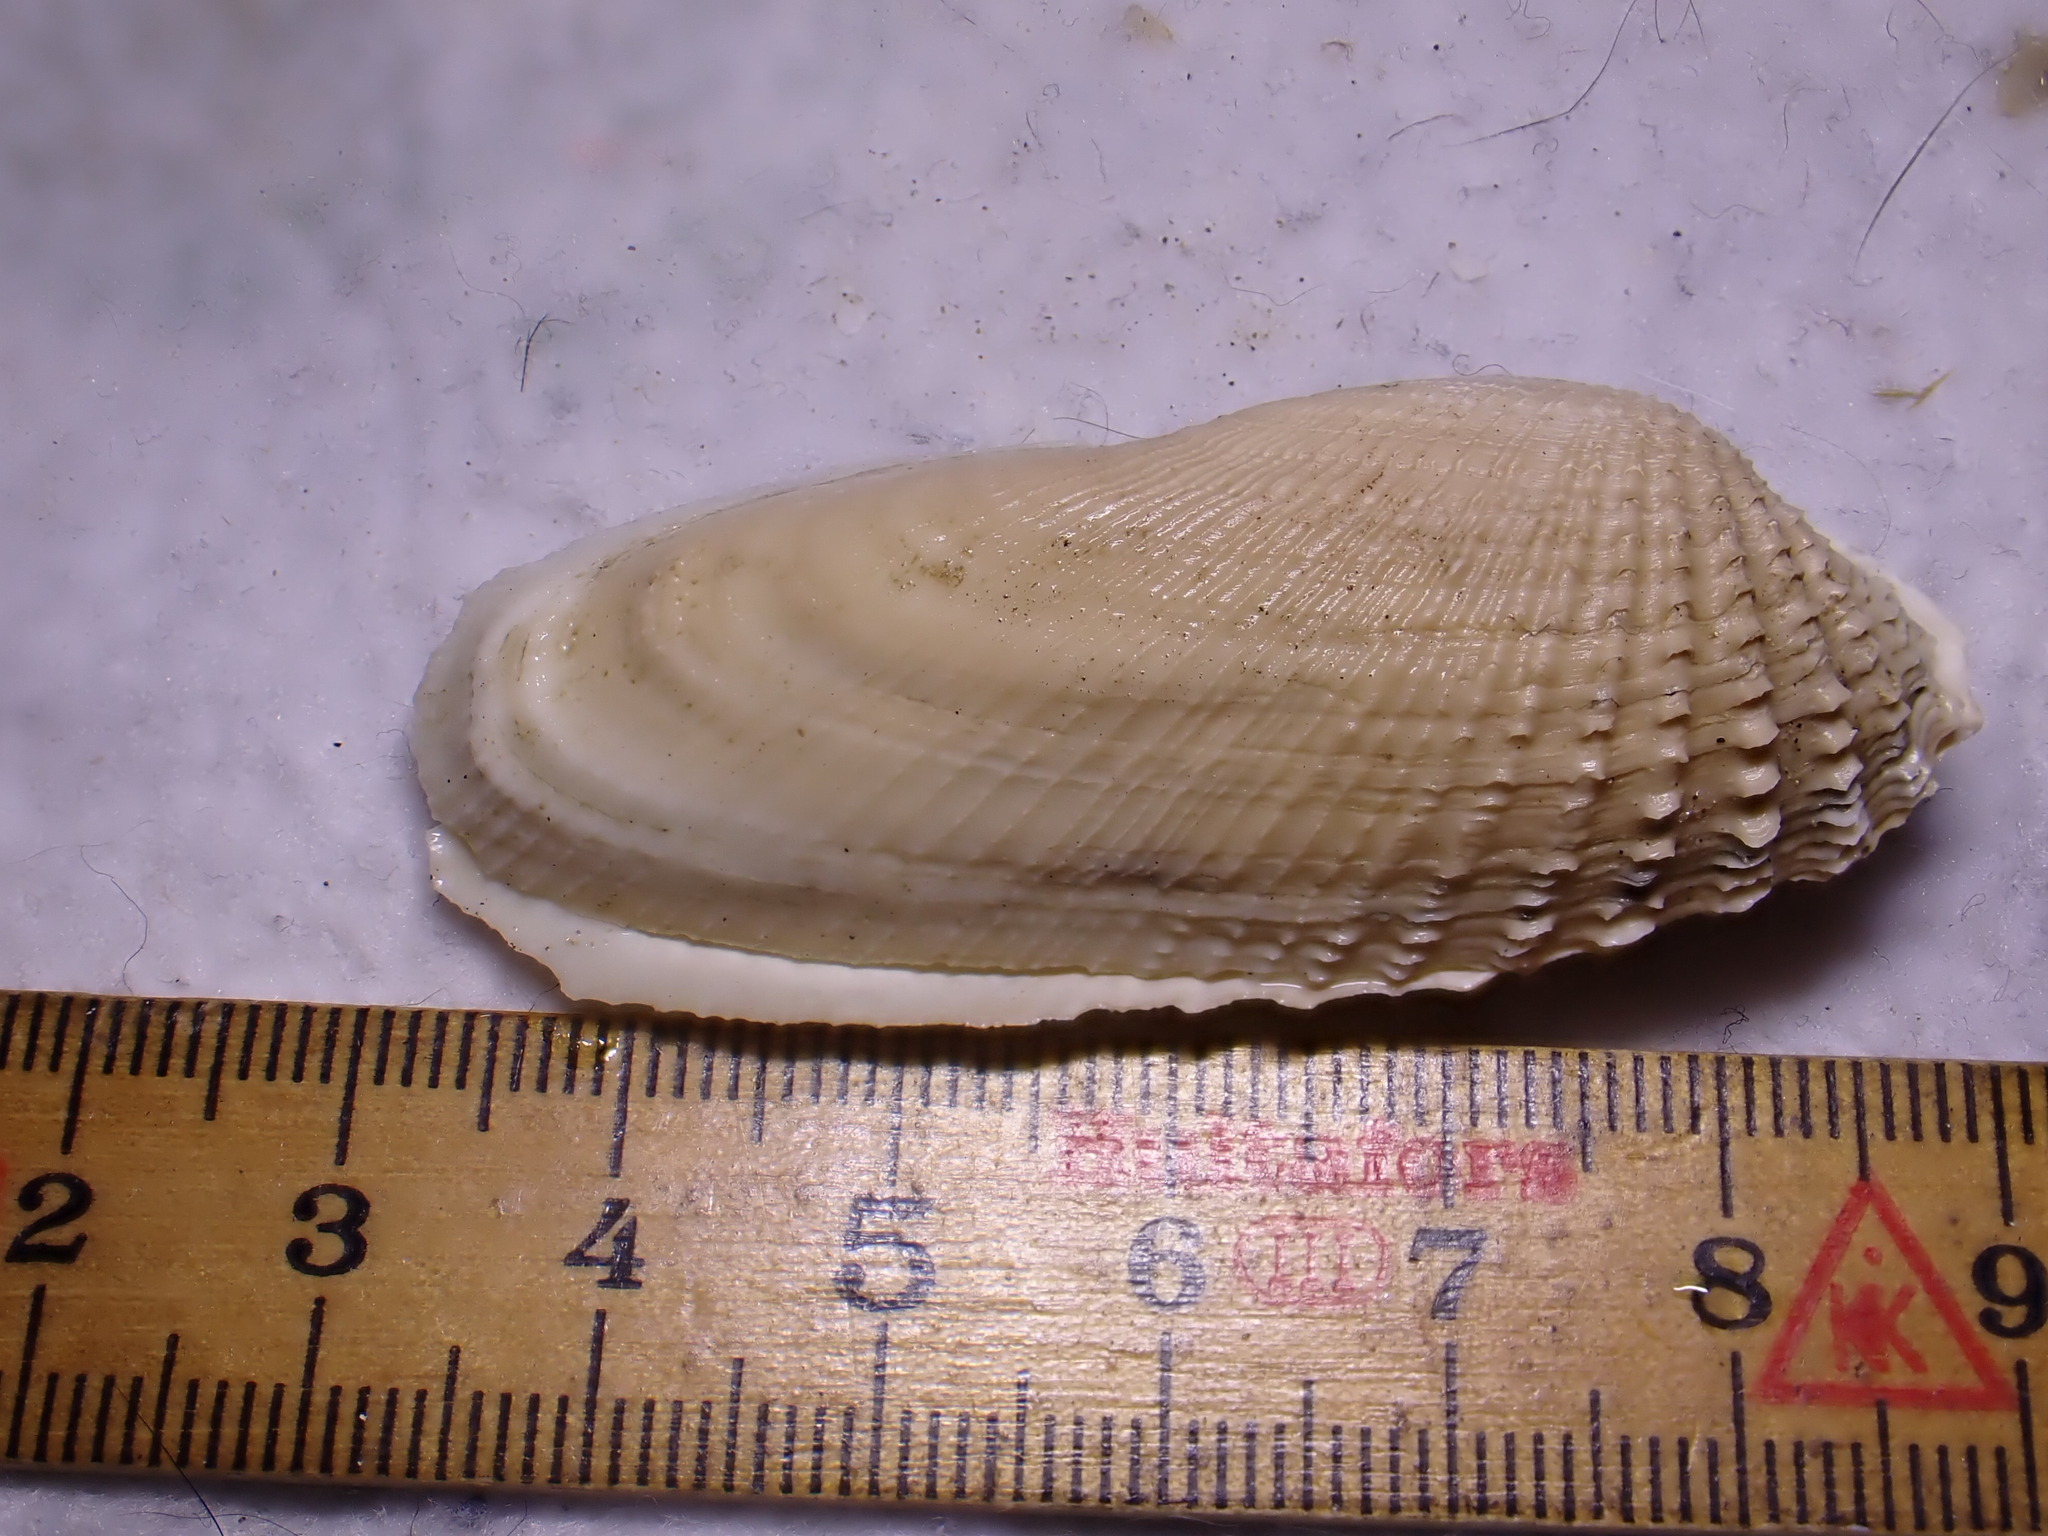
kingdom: Animalia
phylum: Mollusca
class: Bivalvia
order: Venerida
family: Veneridae
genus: Petricolaria
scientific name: Petricolaria pholadiformis
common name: American piddock
